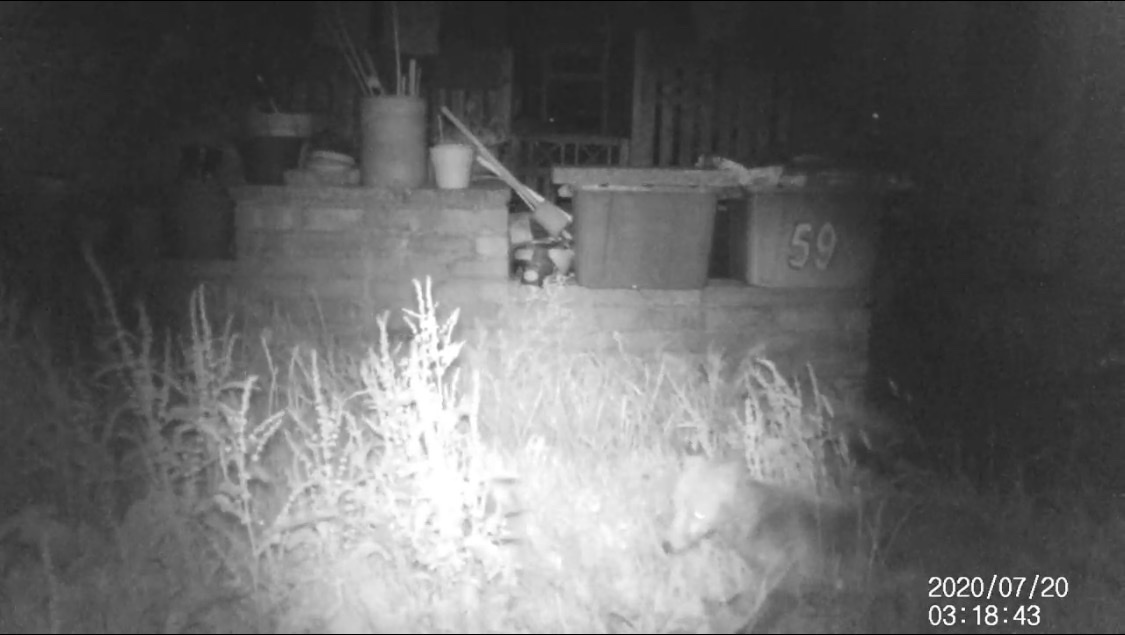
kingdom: Animalia
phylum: Chordata
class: Mammalia
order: Carnivora
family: Canidae
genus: Vulpes
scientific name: Vulpes vulpes
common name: Red fox
